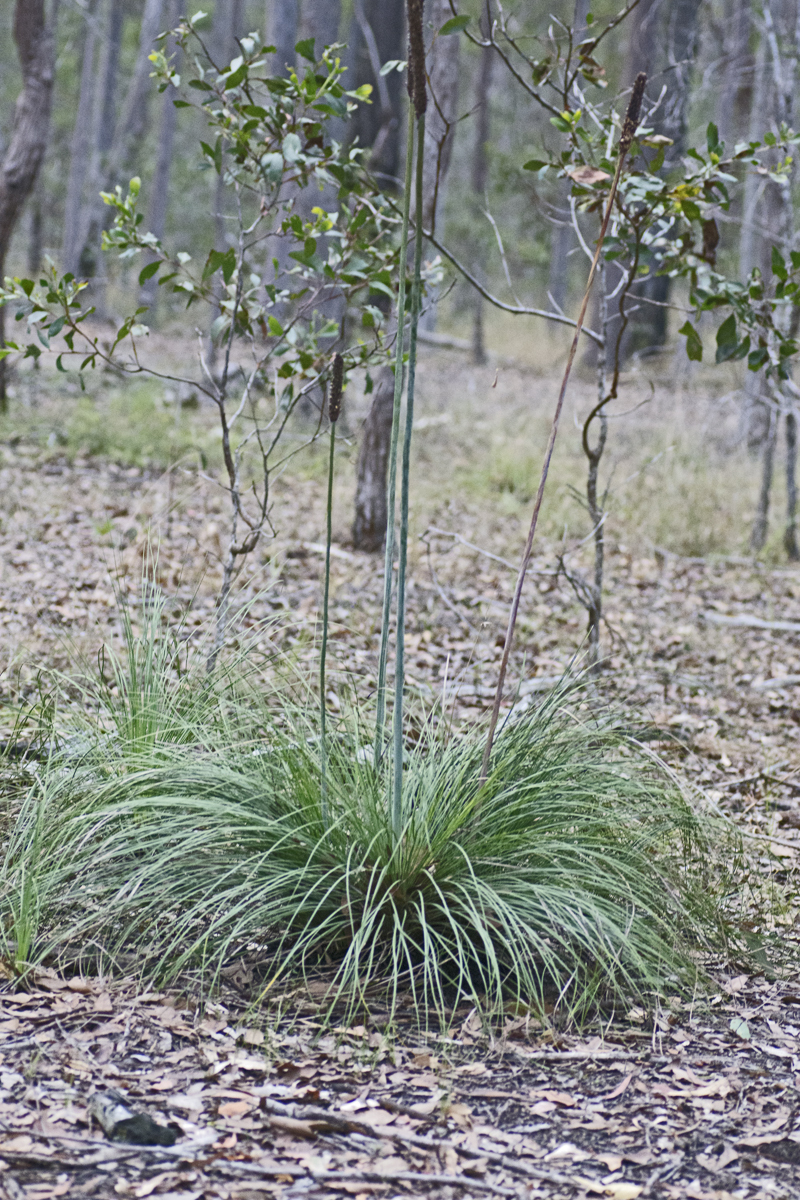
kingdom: Plantae
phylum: Tracheophyta
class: Liliopsida
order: Asparagales
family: Asphodelaceae
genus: Xanthorrhoea
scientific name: Xanthorrhoea latifolia
